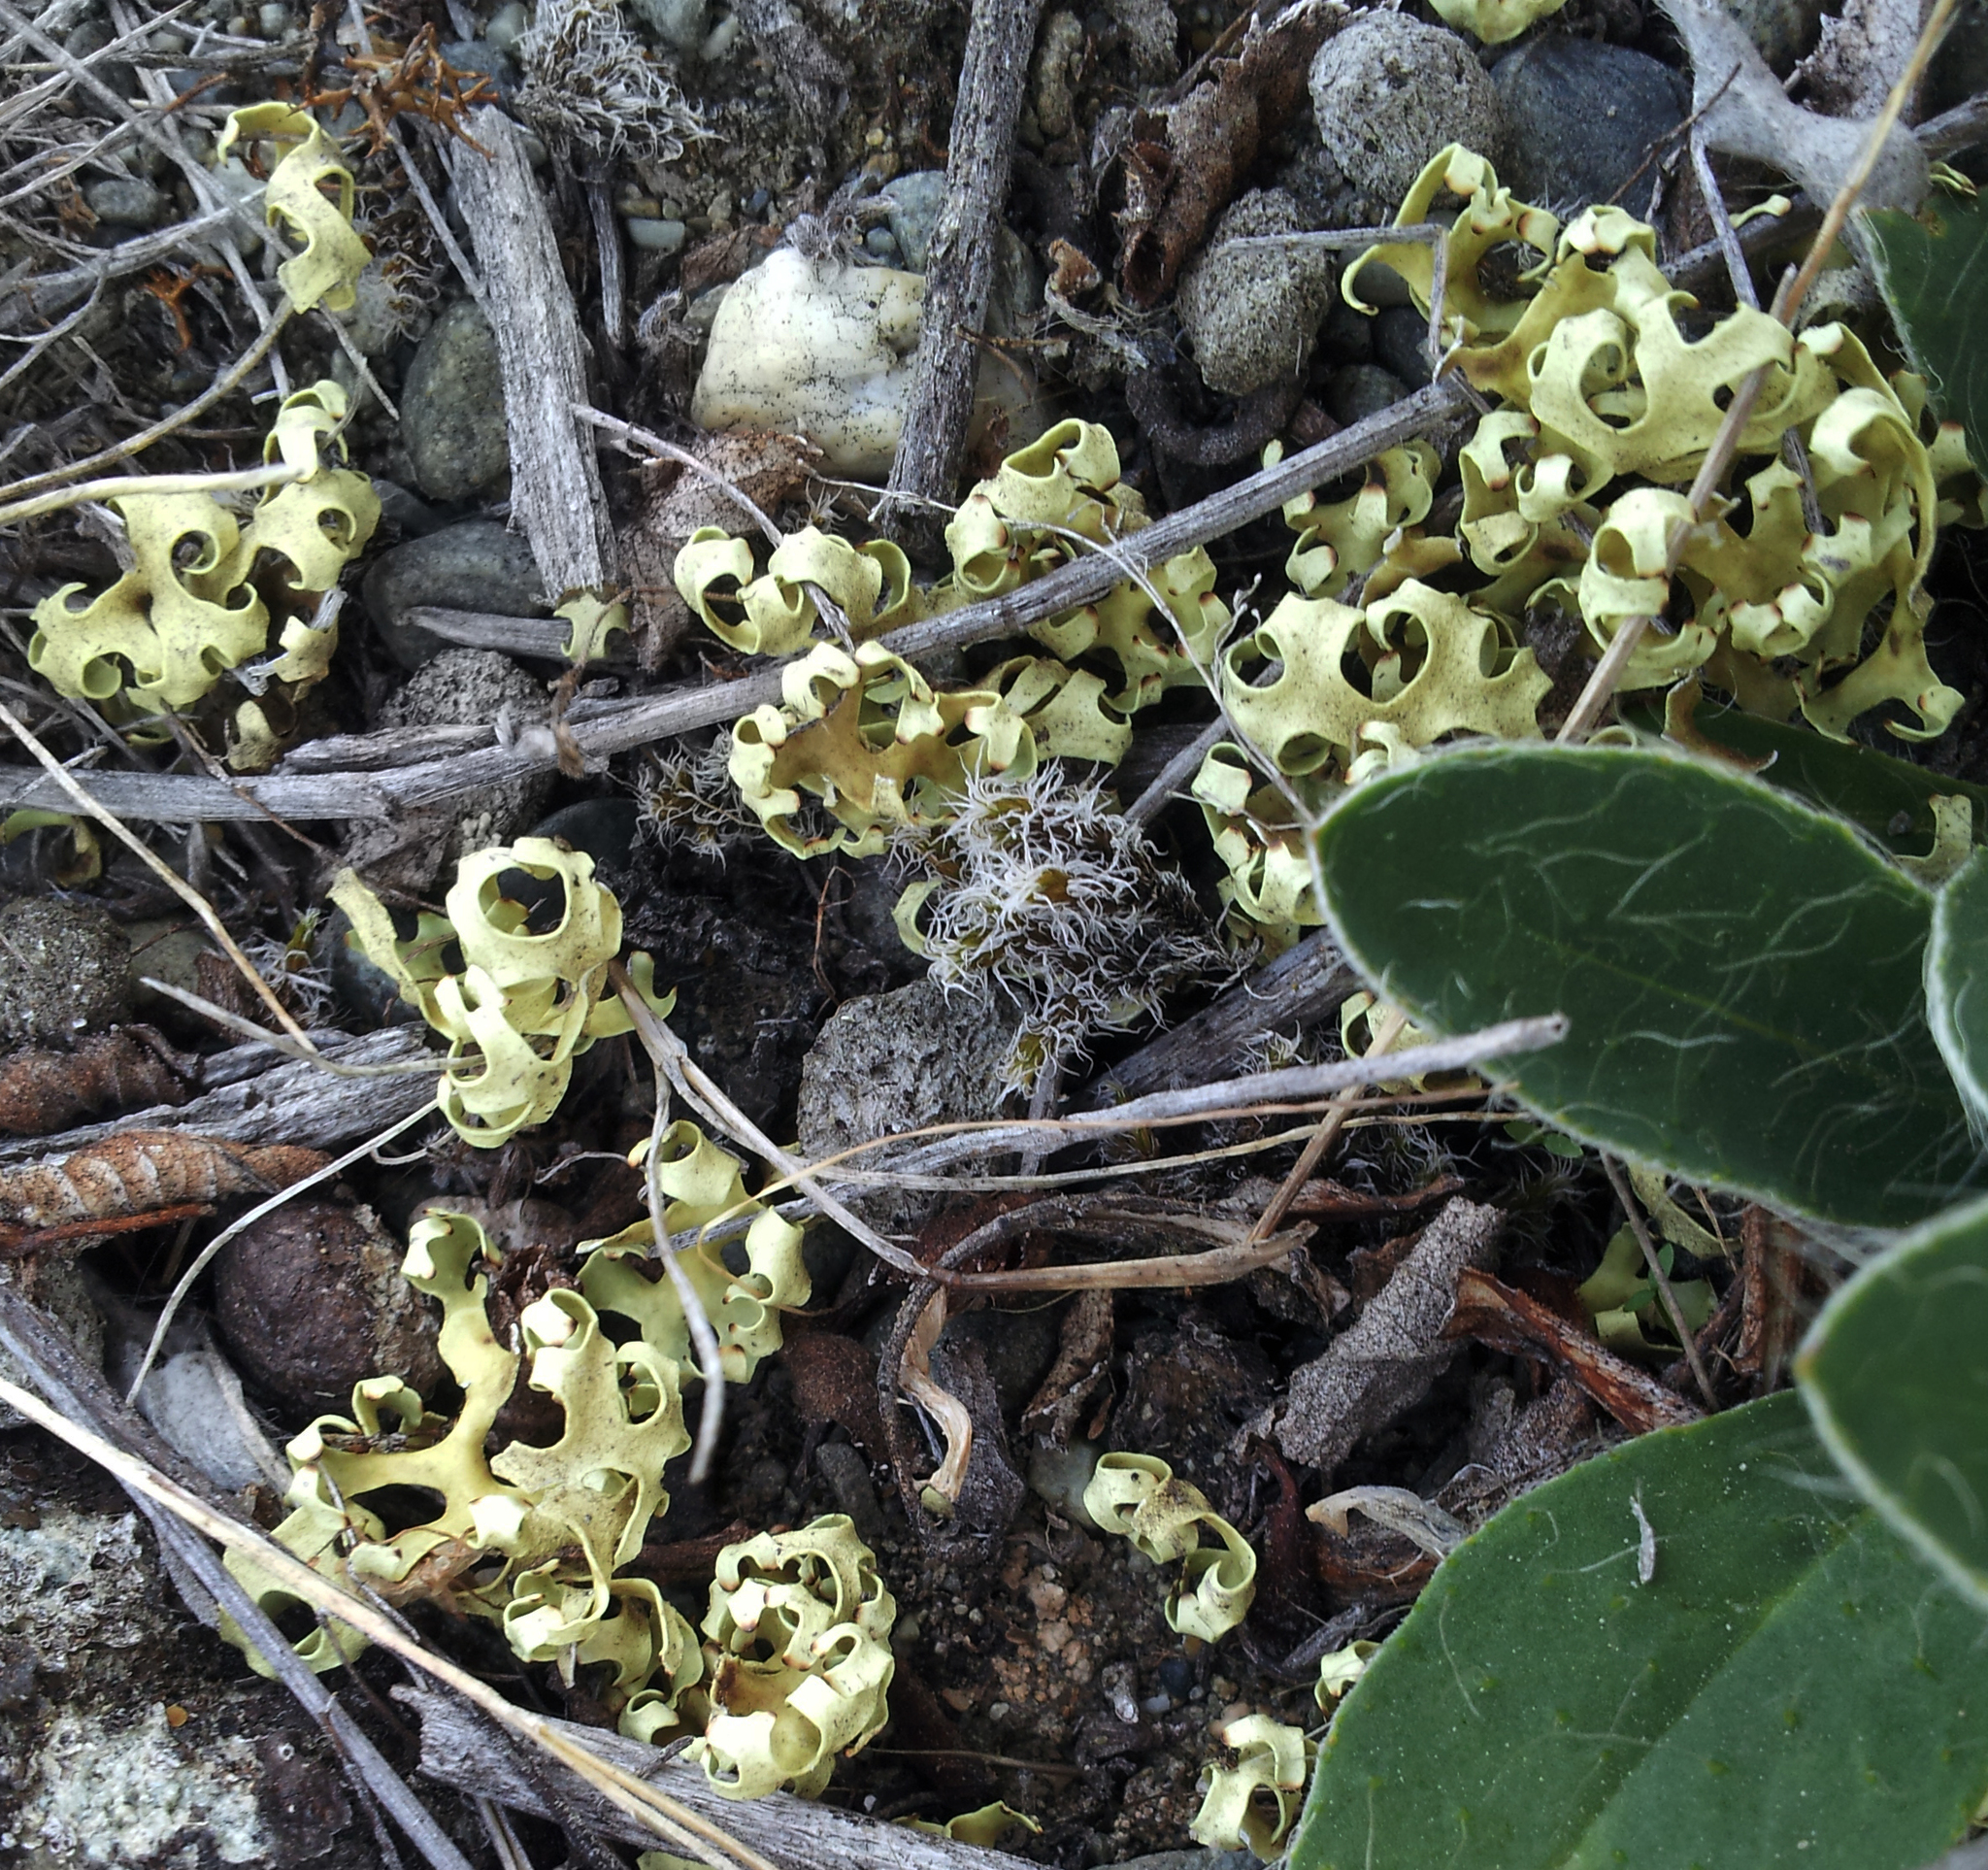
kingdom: Fungi
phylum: Ascomycota
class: Lecanoromycetes
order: Lecanorales
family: Parmeliaceae
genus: Xanthoparmelia
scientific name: Xanthoparmelia semiviridis
